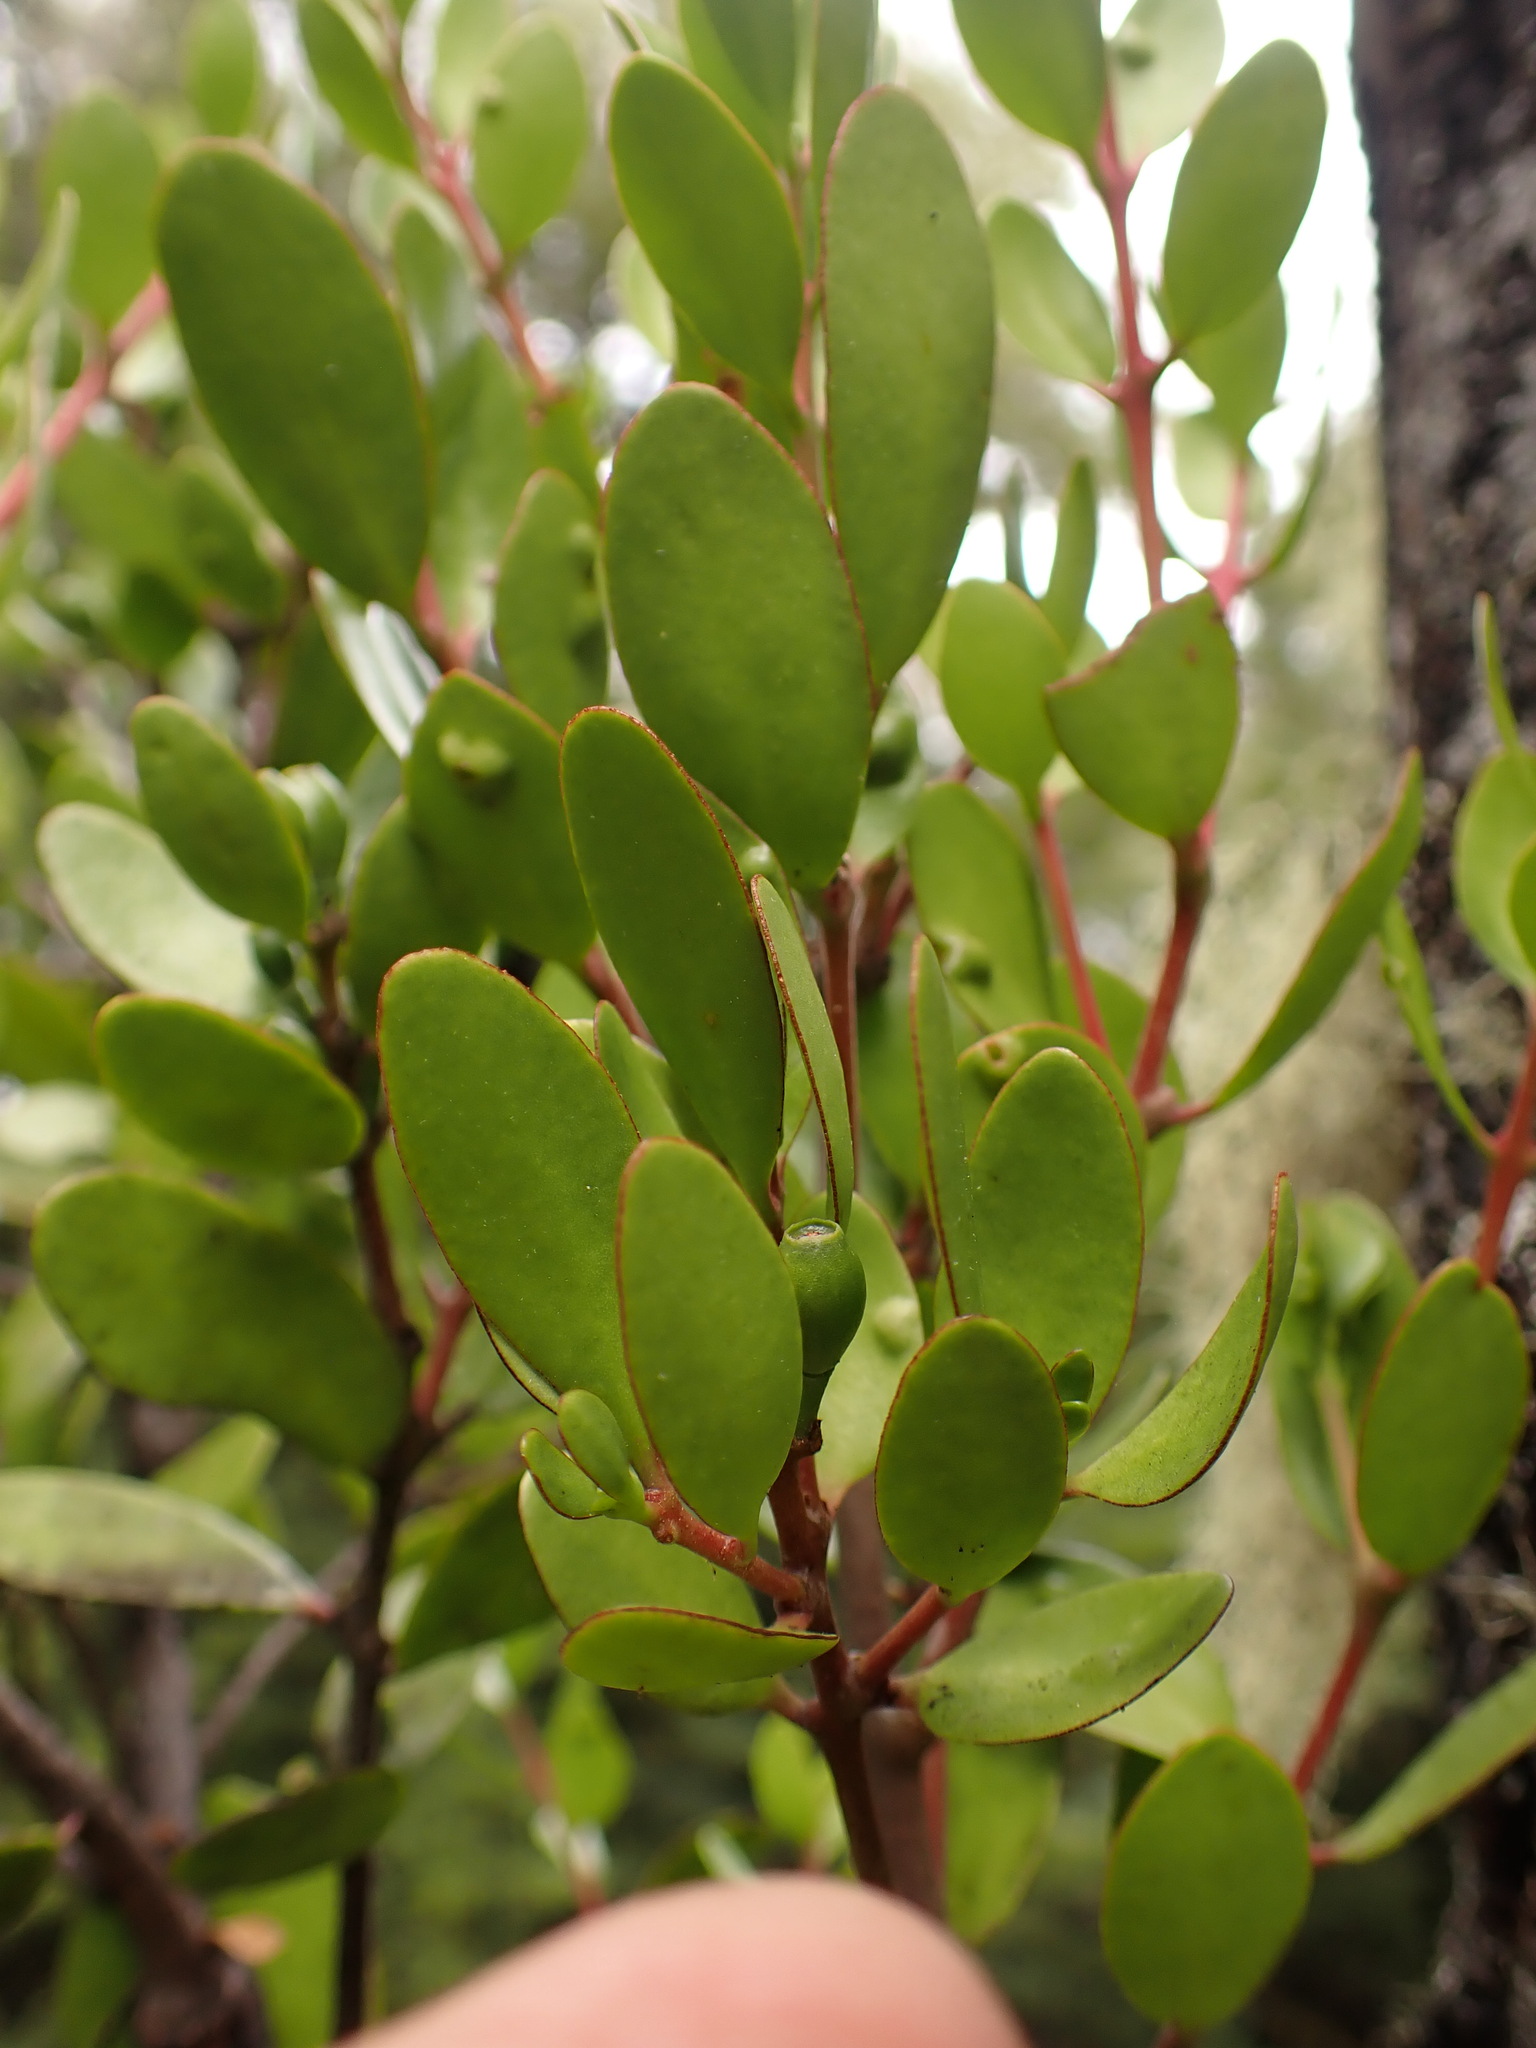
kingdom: Plantae
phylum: Tracheophyta
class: Magnoliopsida
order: Santalales
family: Loranthaceae
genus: Peraxilla
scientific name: Peraxilla tetrapetala
